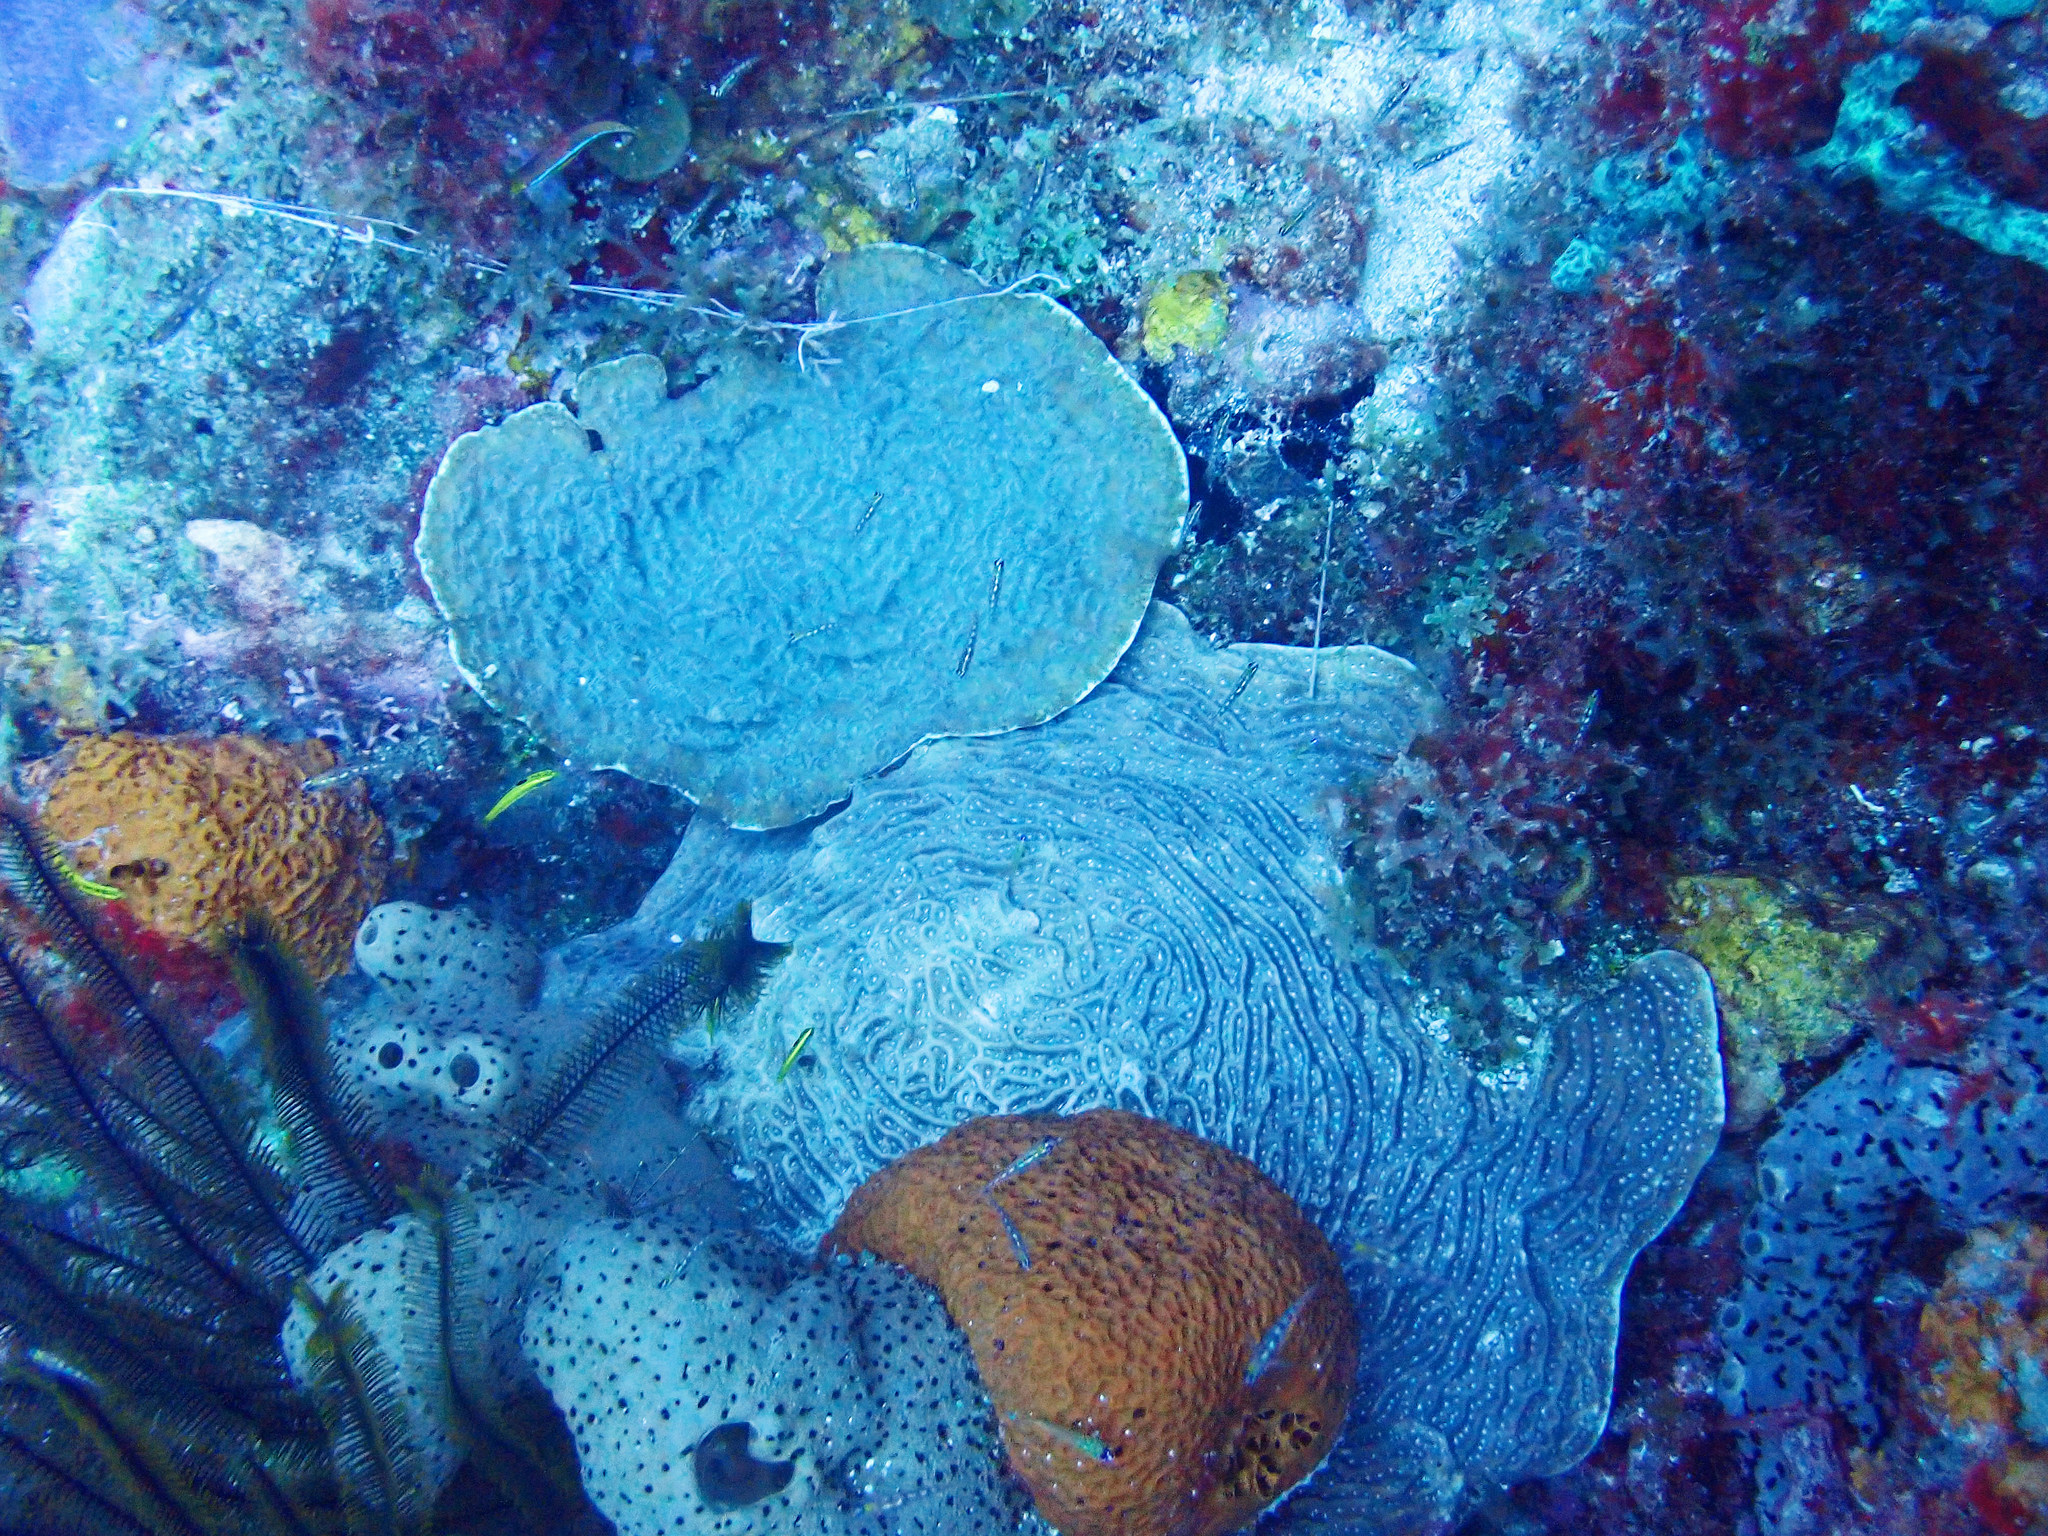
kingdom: Animalia
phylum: Cnidaria
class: Anthozoa
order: Scleractinia
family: Agariciidae
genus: Helioseris
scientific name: Helioseris cucullata
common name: Sunray lettuce coral
